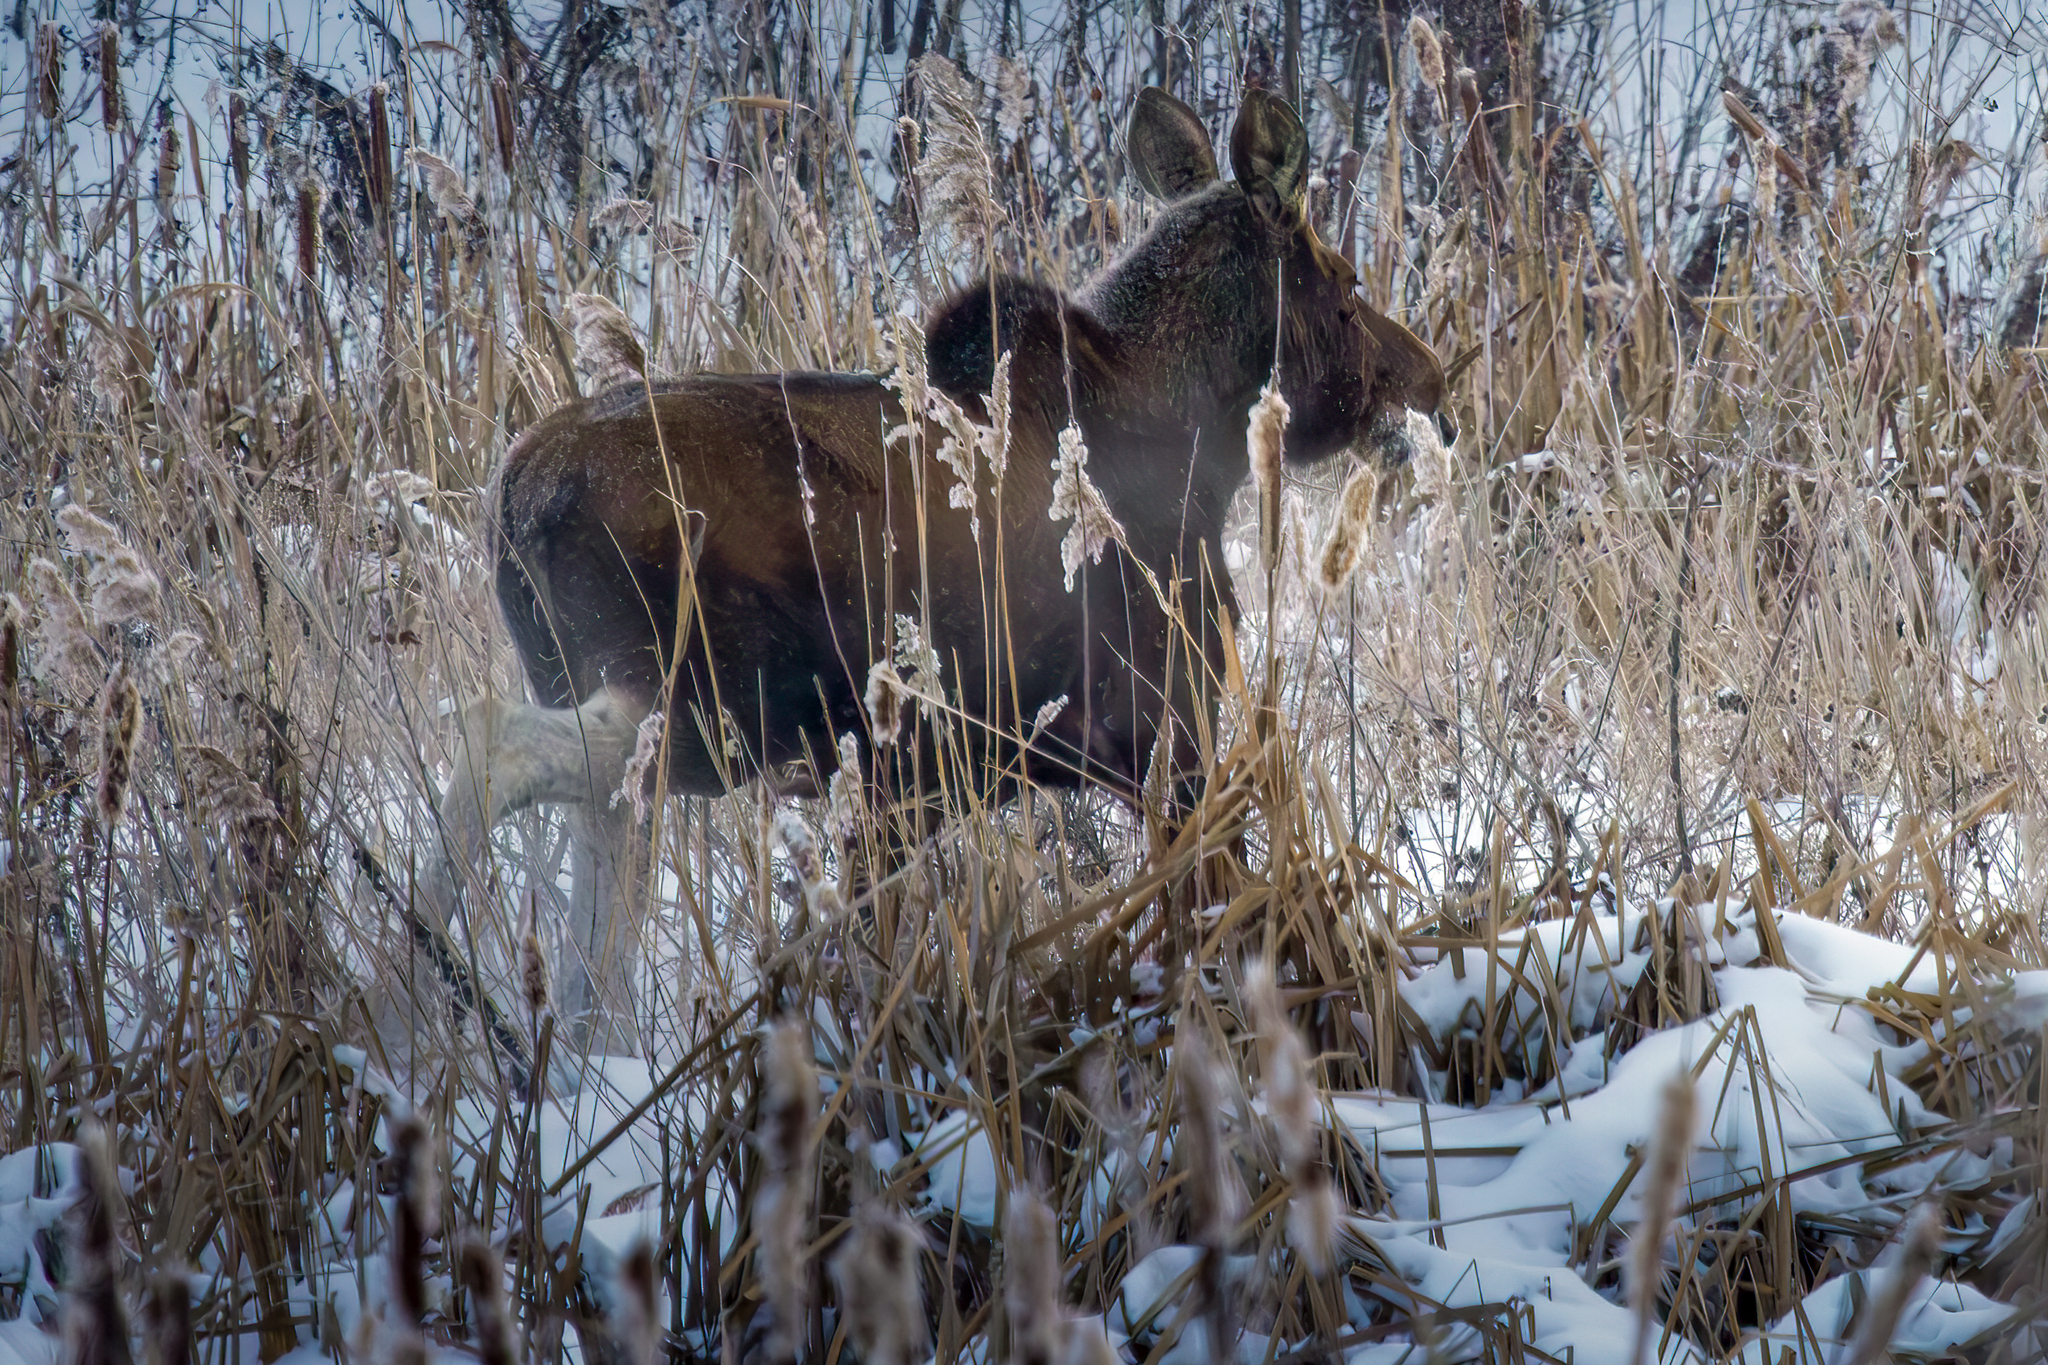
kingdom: Animalia
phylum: Chordata
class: Mammalia
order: Artiodactyla
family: Cervidae
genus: Alces
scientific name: Alces alces
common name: Moose
